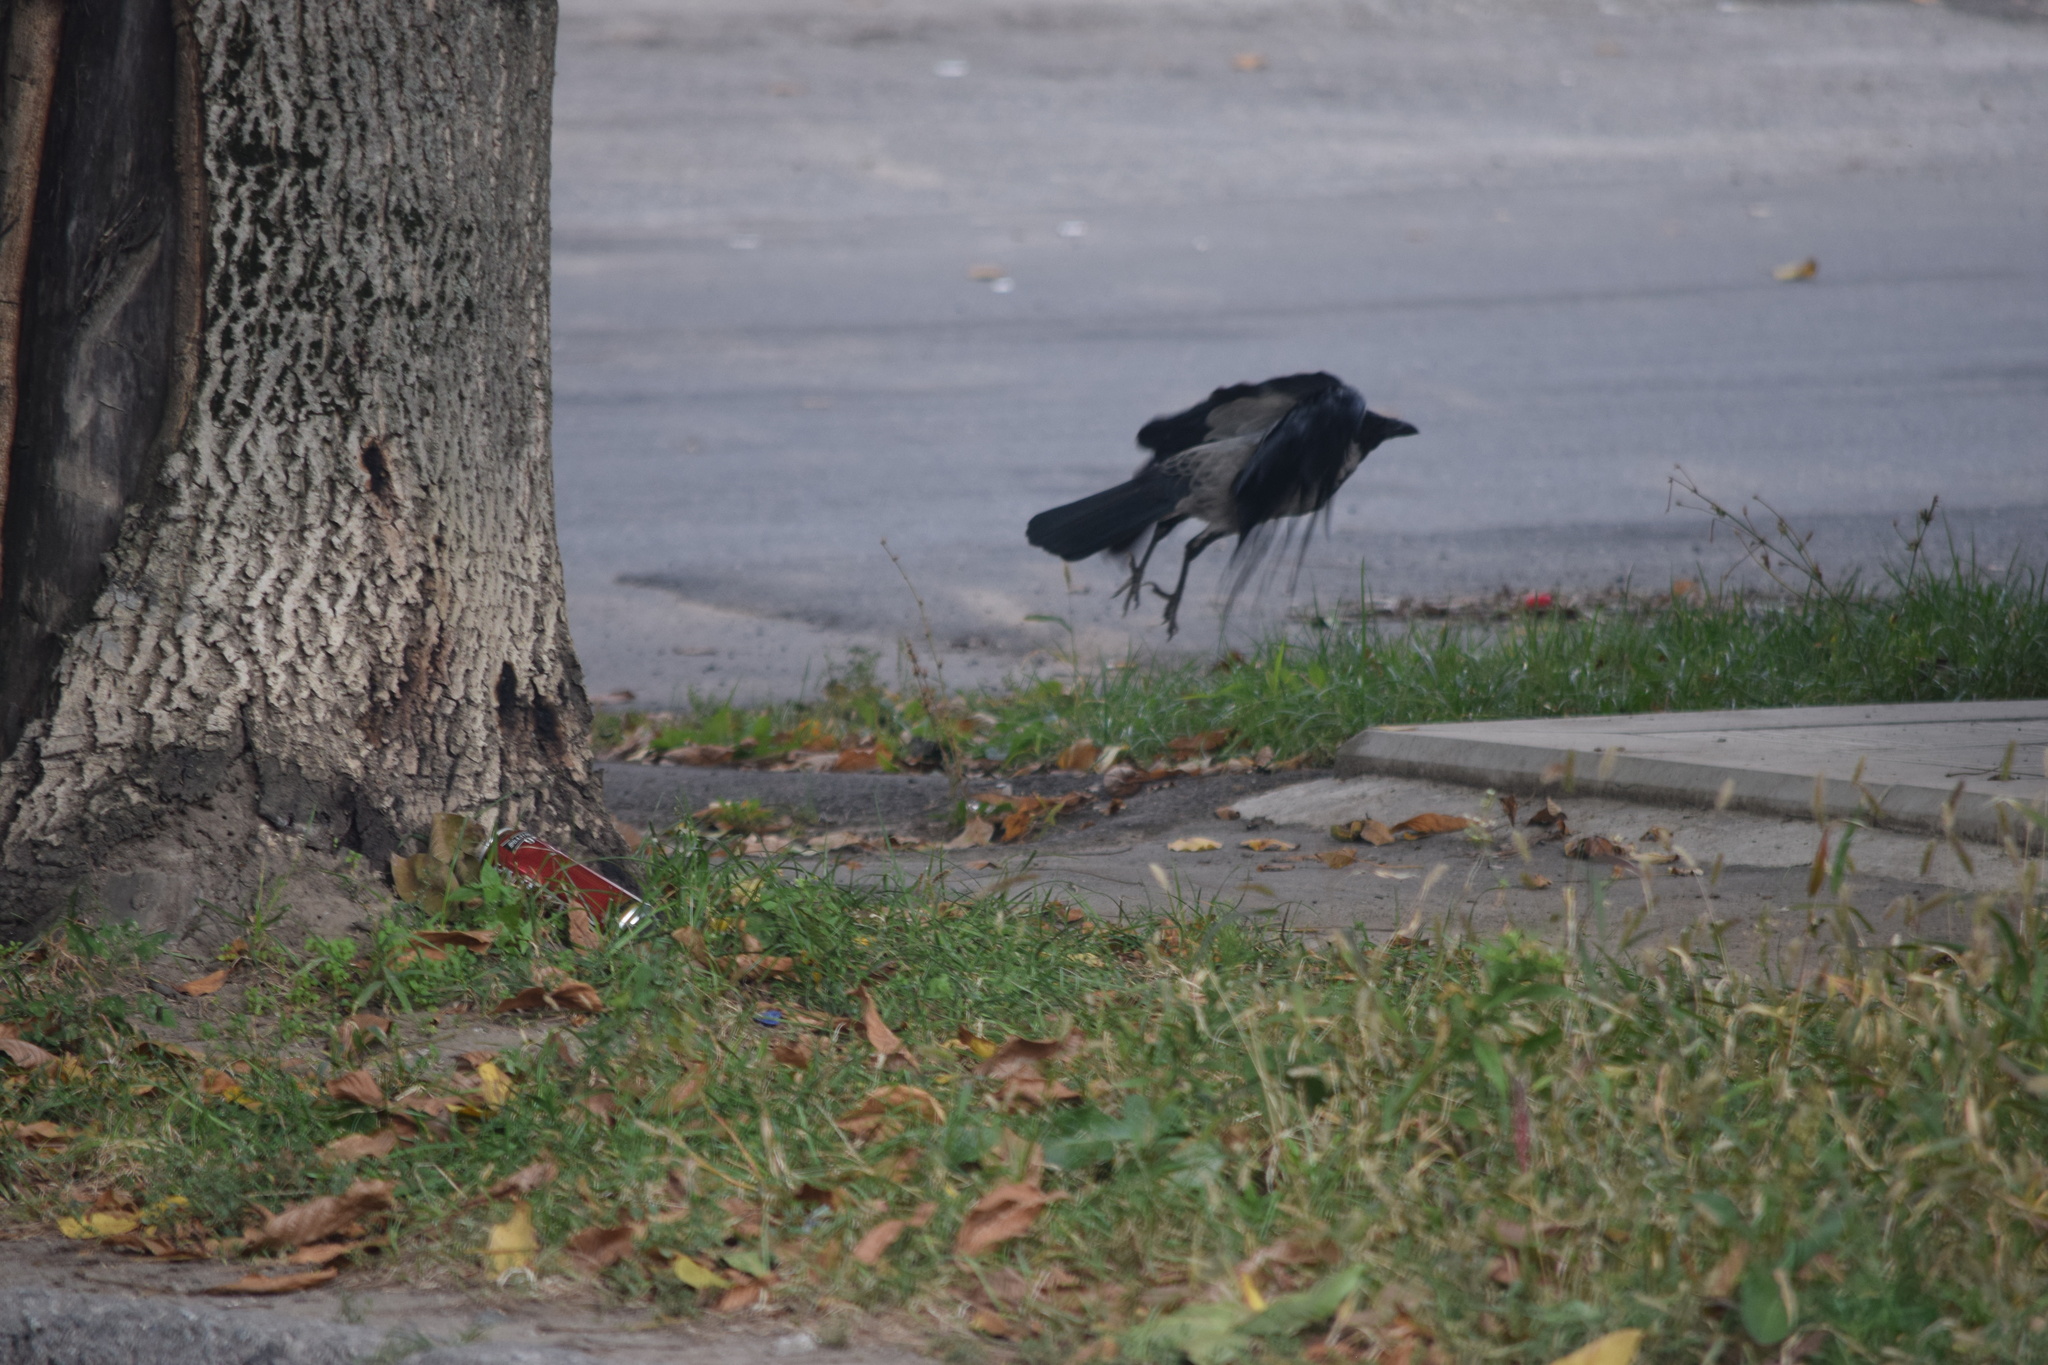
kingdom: Animalia
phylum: Chordata
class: Aves
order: Passeriformes
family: Corvidae
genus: Corvus
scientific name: Corvus cornix
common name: Hooded crow
